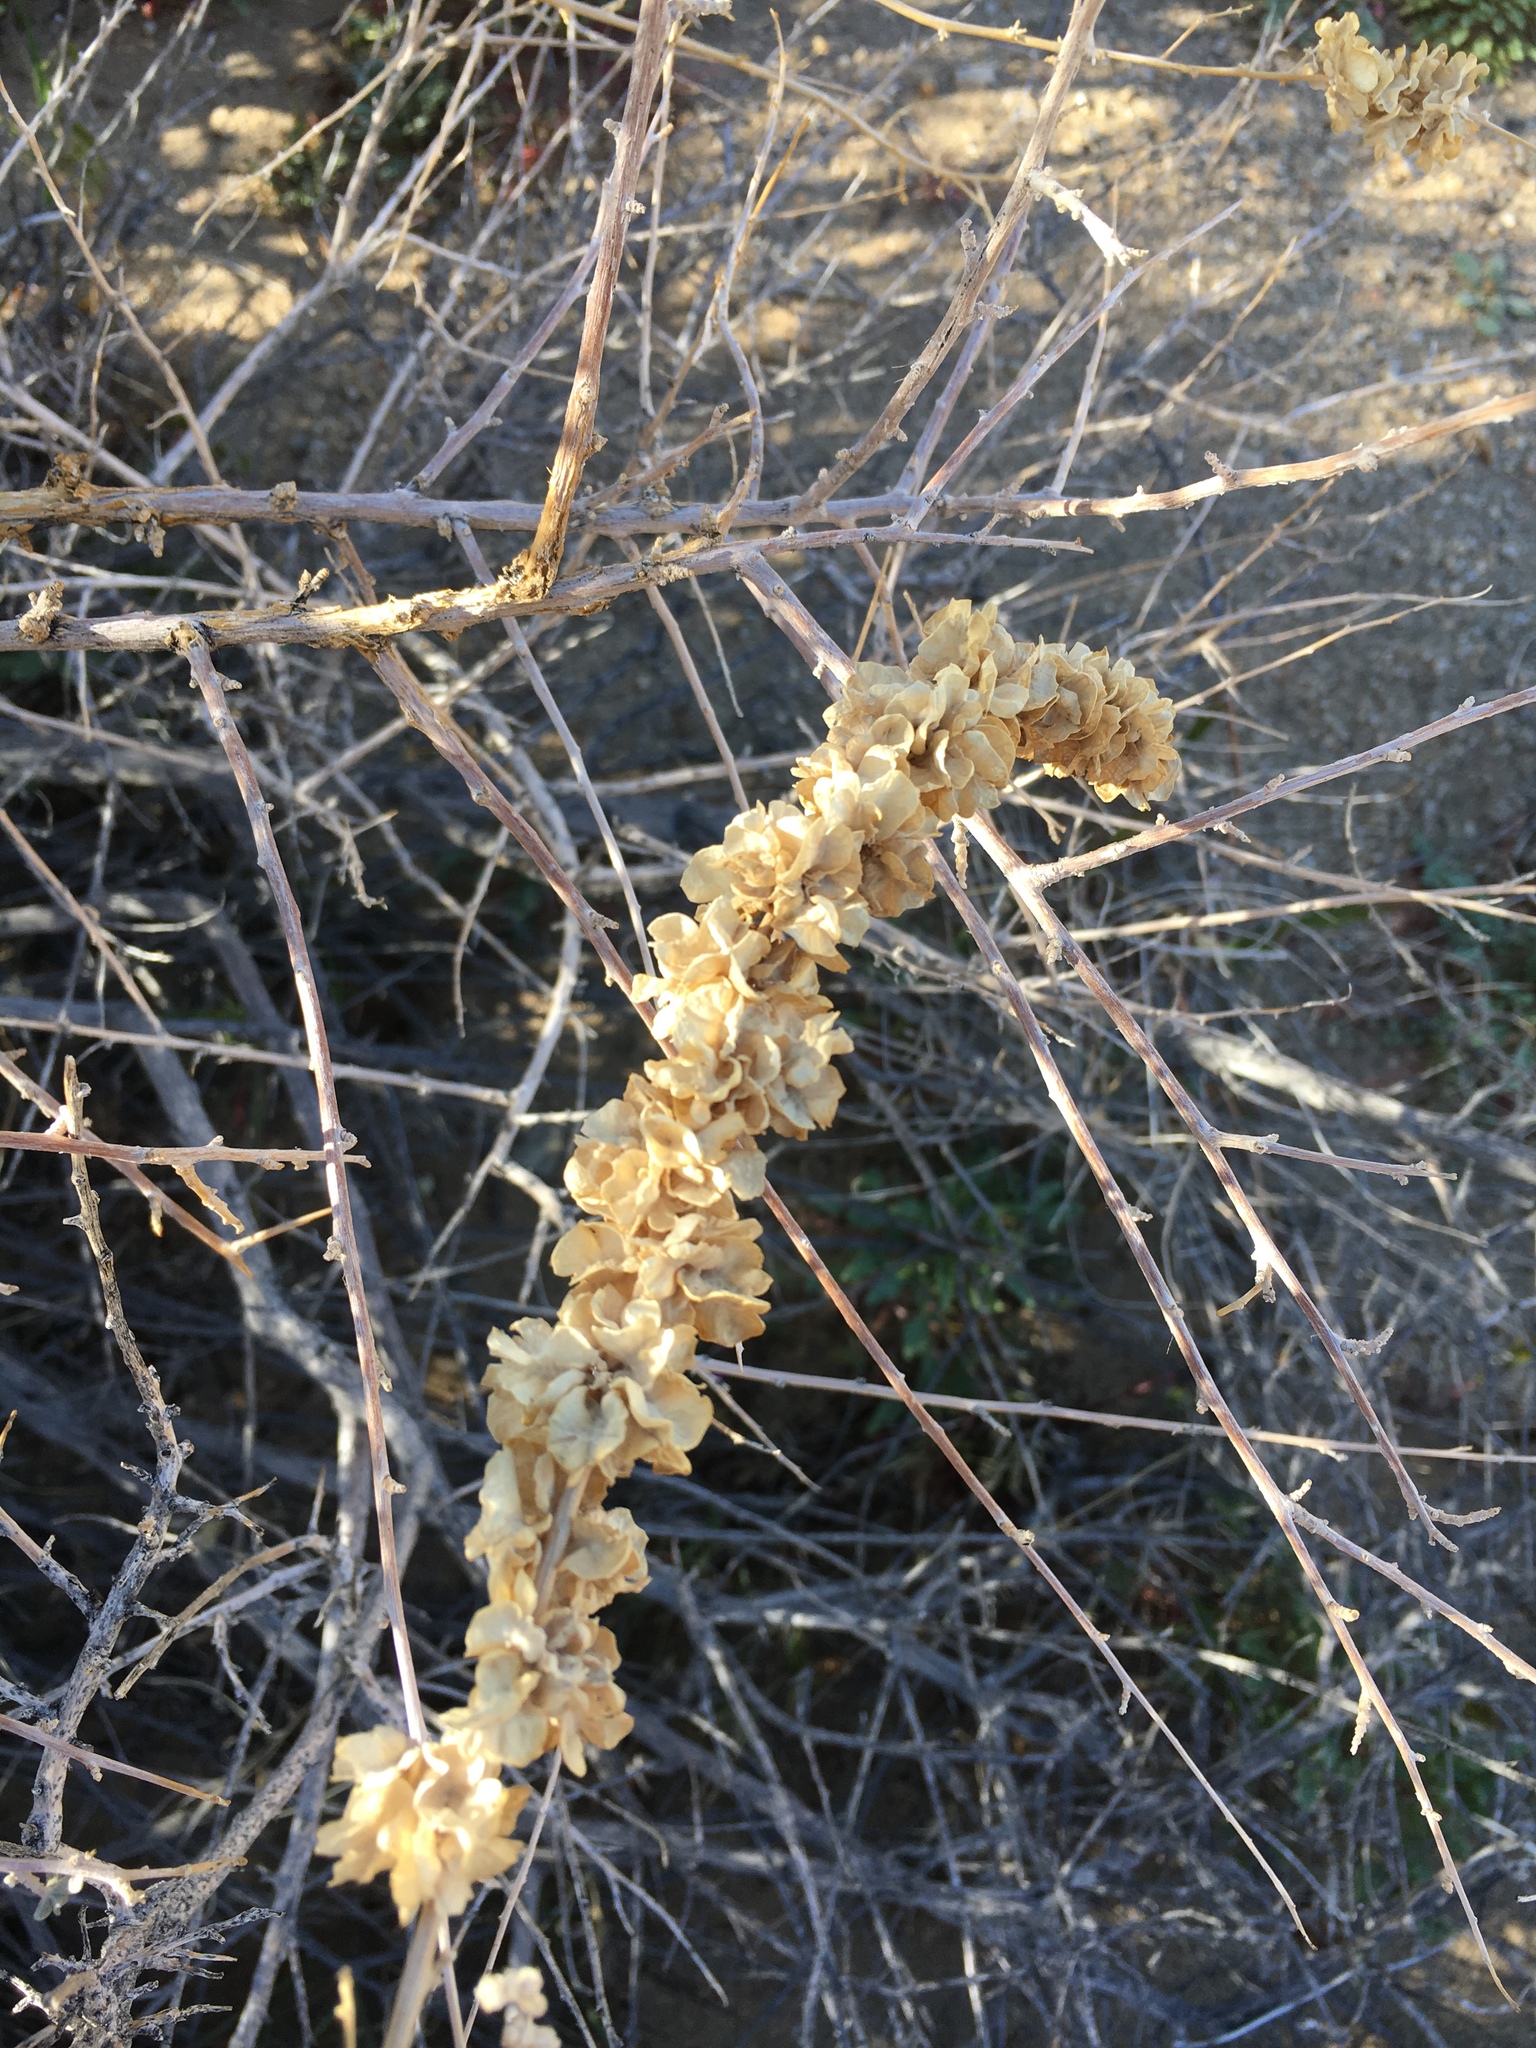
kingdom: Plantae
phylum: Tracheophyta
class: Magnoliopsida
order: Caryophyllales
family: Amaranthaceae
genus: Atriplex
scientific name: Atriplex canescens
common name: Four-wing saltbush
